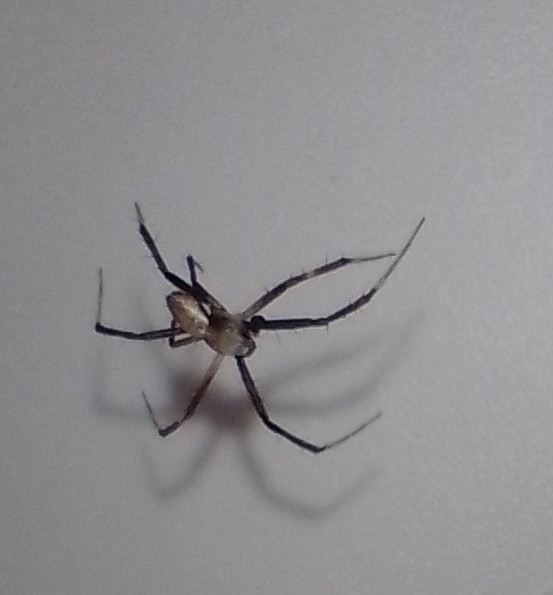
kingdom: Animalia
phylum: Arthropoda
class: Arachnida
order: Araneae
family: Araneidae
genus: Argiope
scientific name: Argiope argentata
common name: Orb weavers
